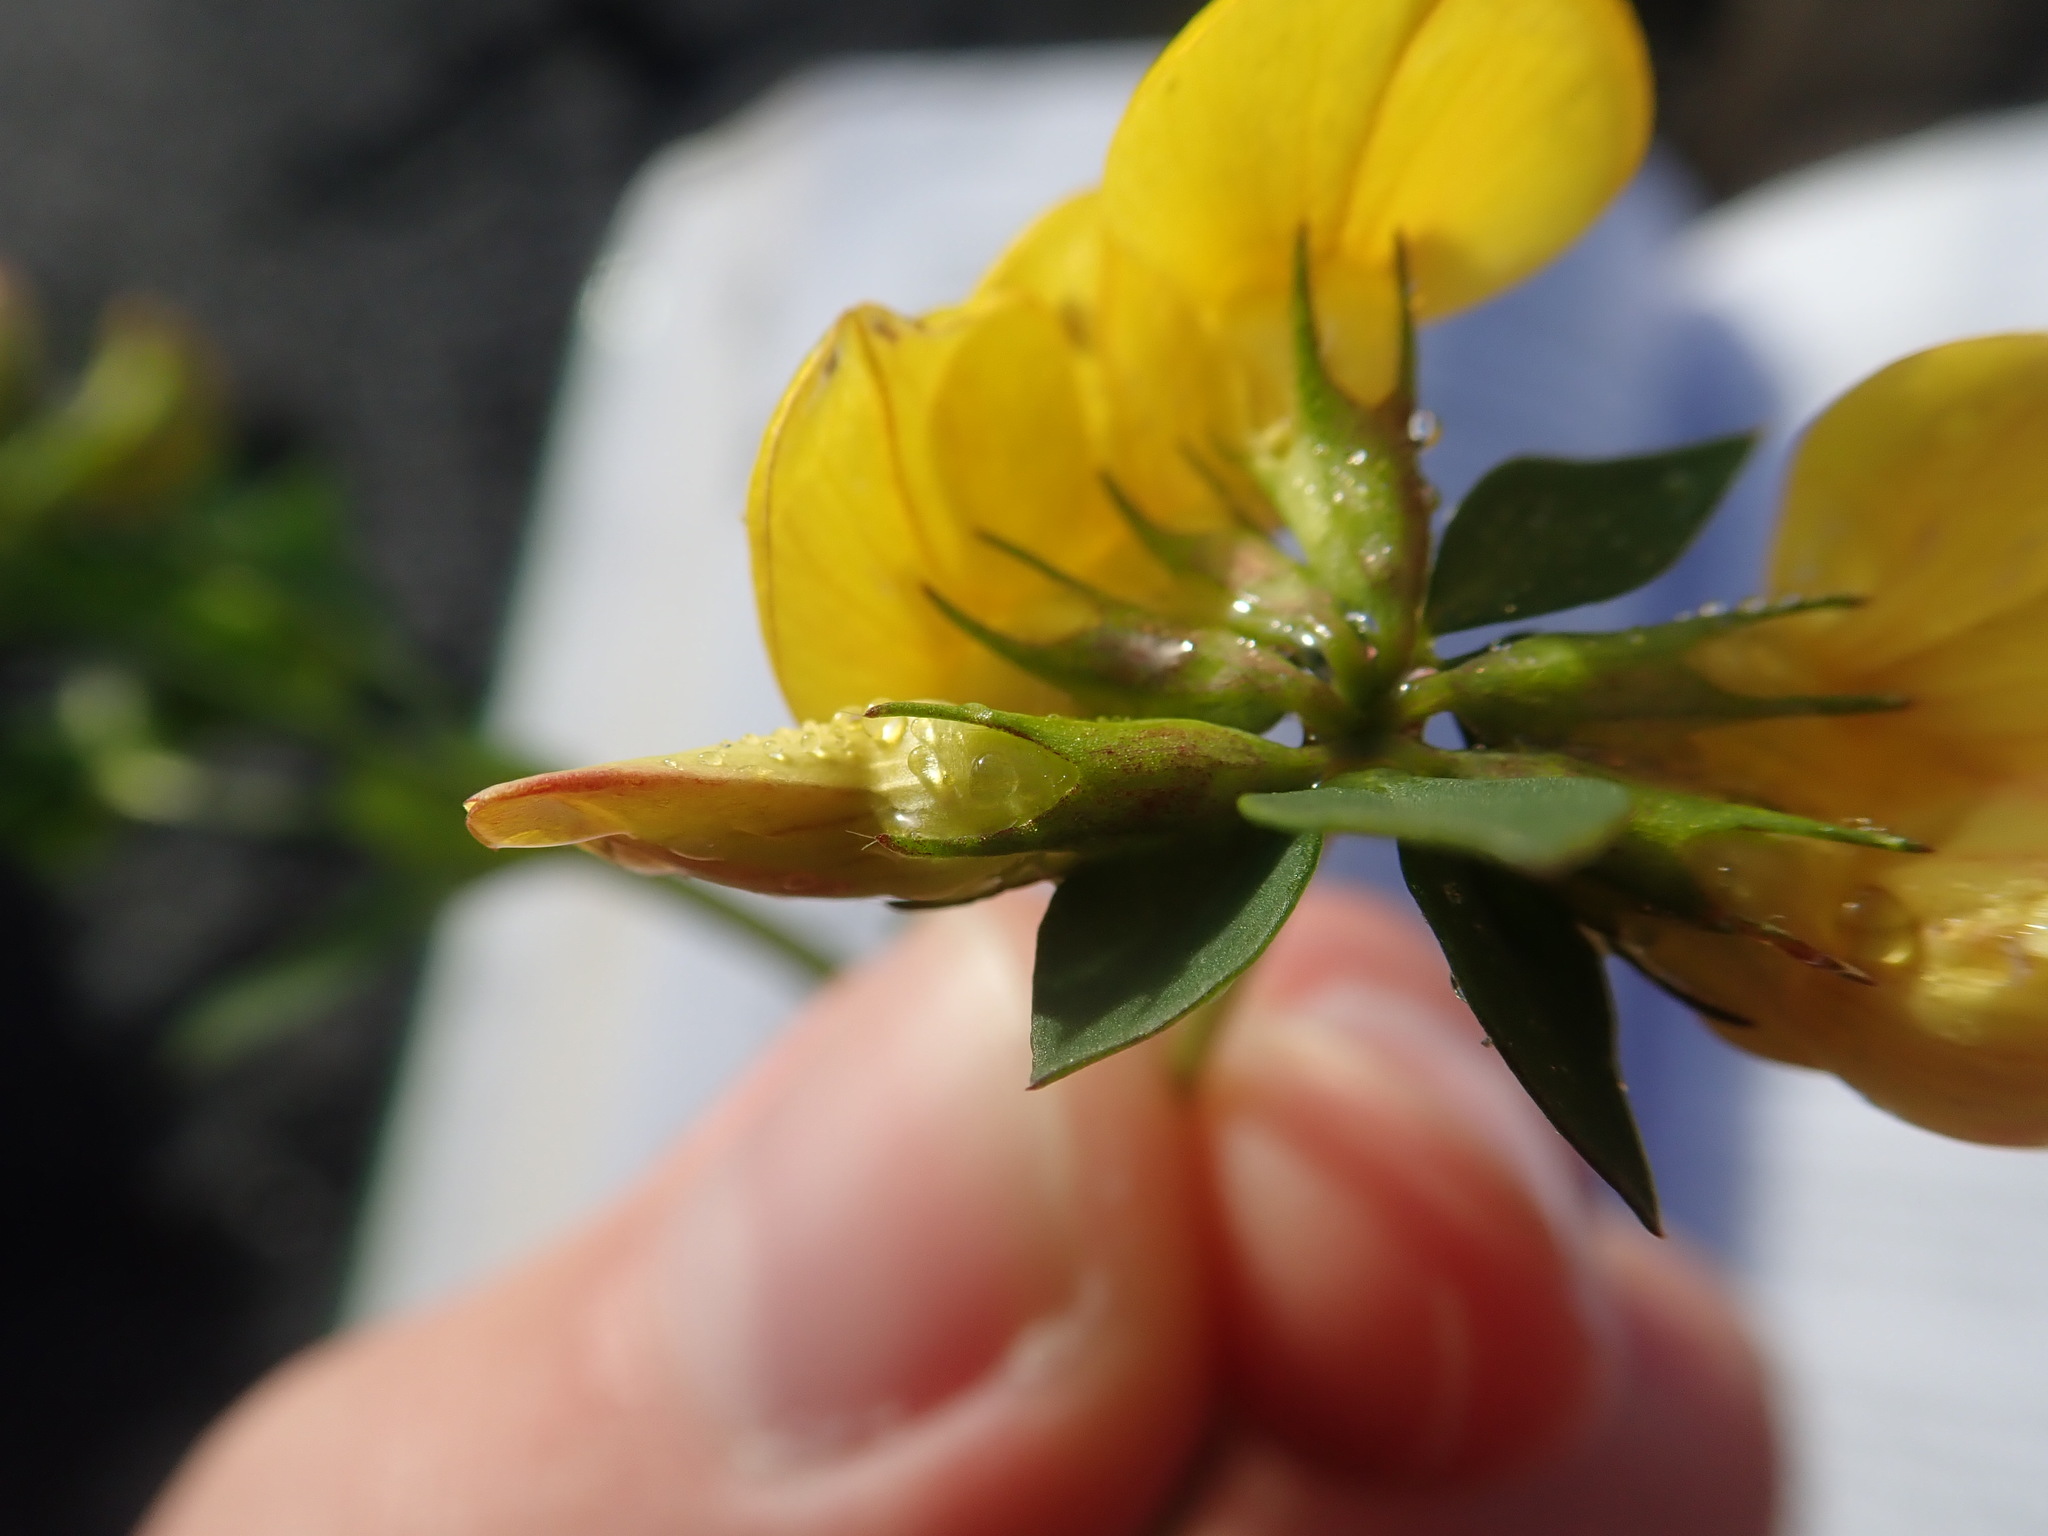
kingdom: Plantae
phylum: Tracheophyta
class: Magnoliopsida
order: Fabales
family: Fabaceae
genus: Lotus
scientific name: Lotus corniculatus
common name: Common bird's-foot-trefoil
